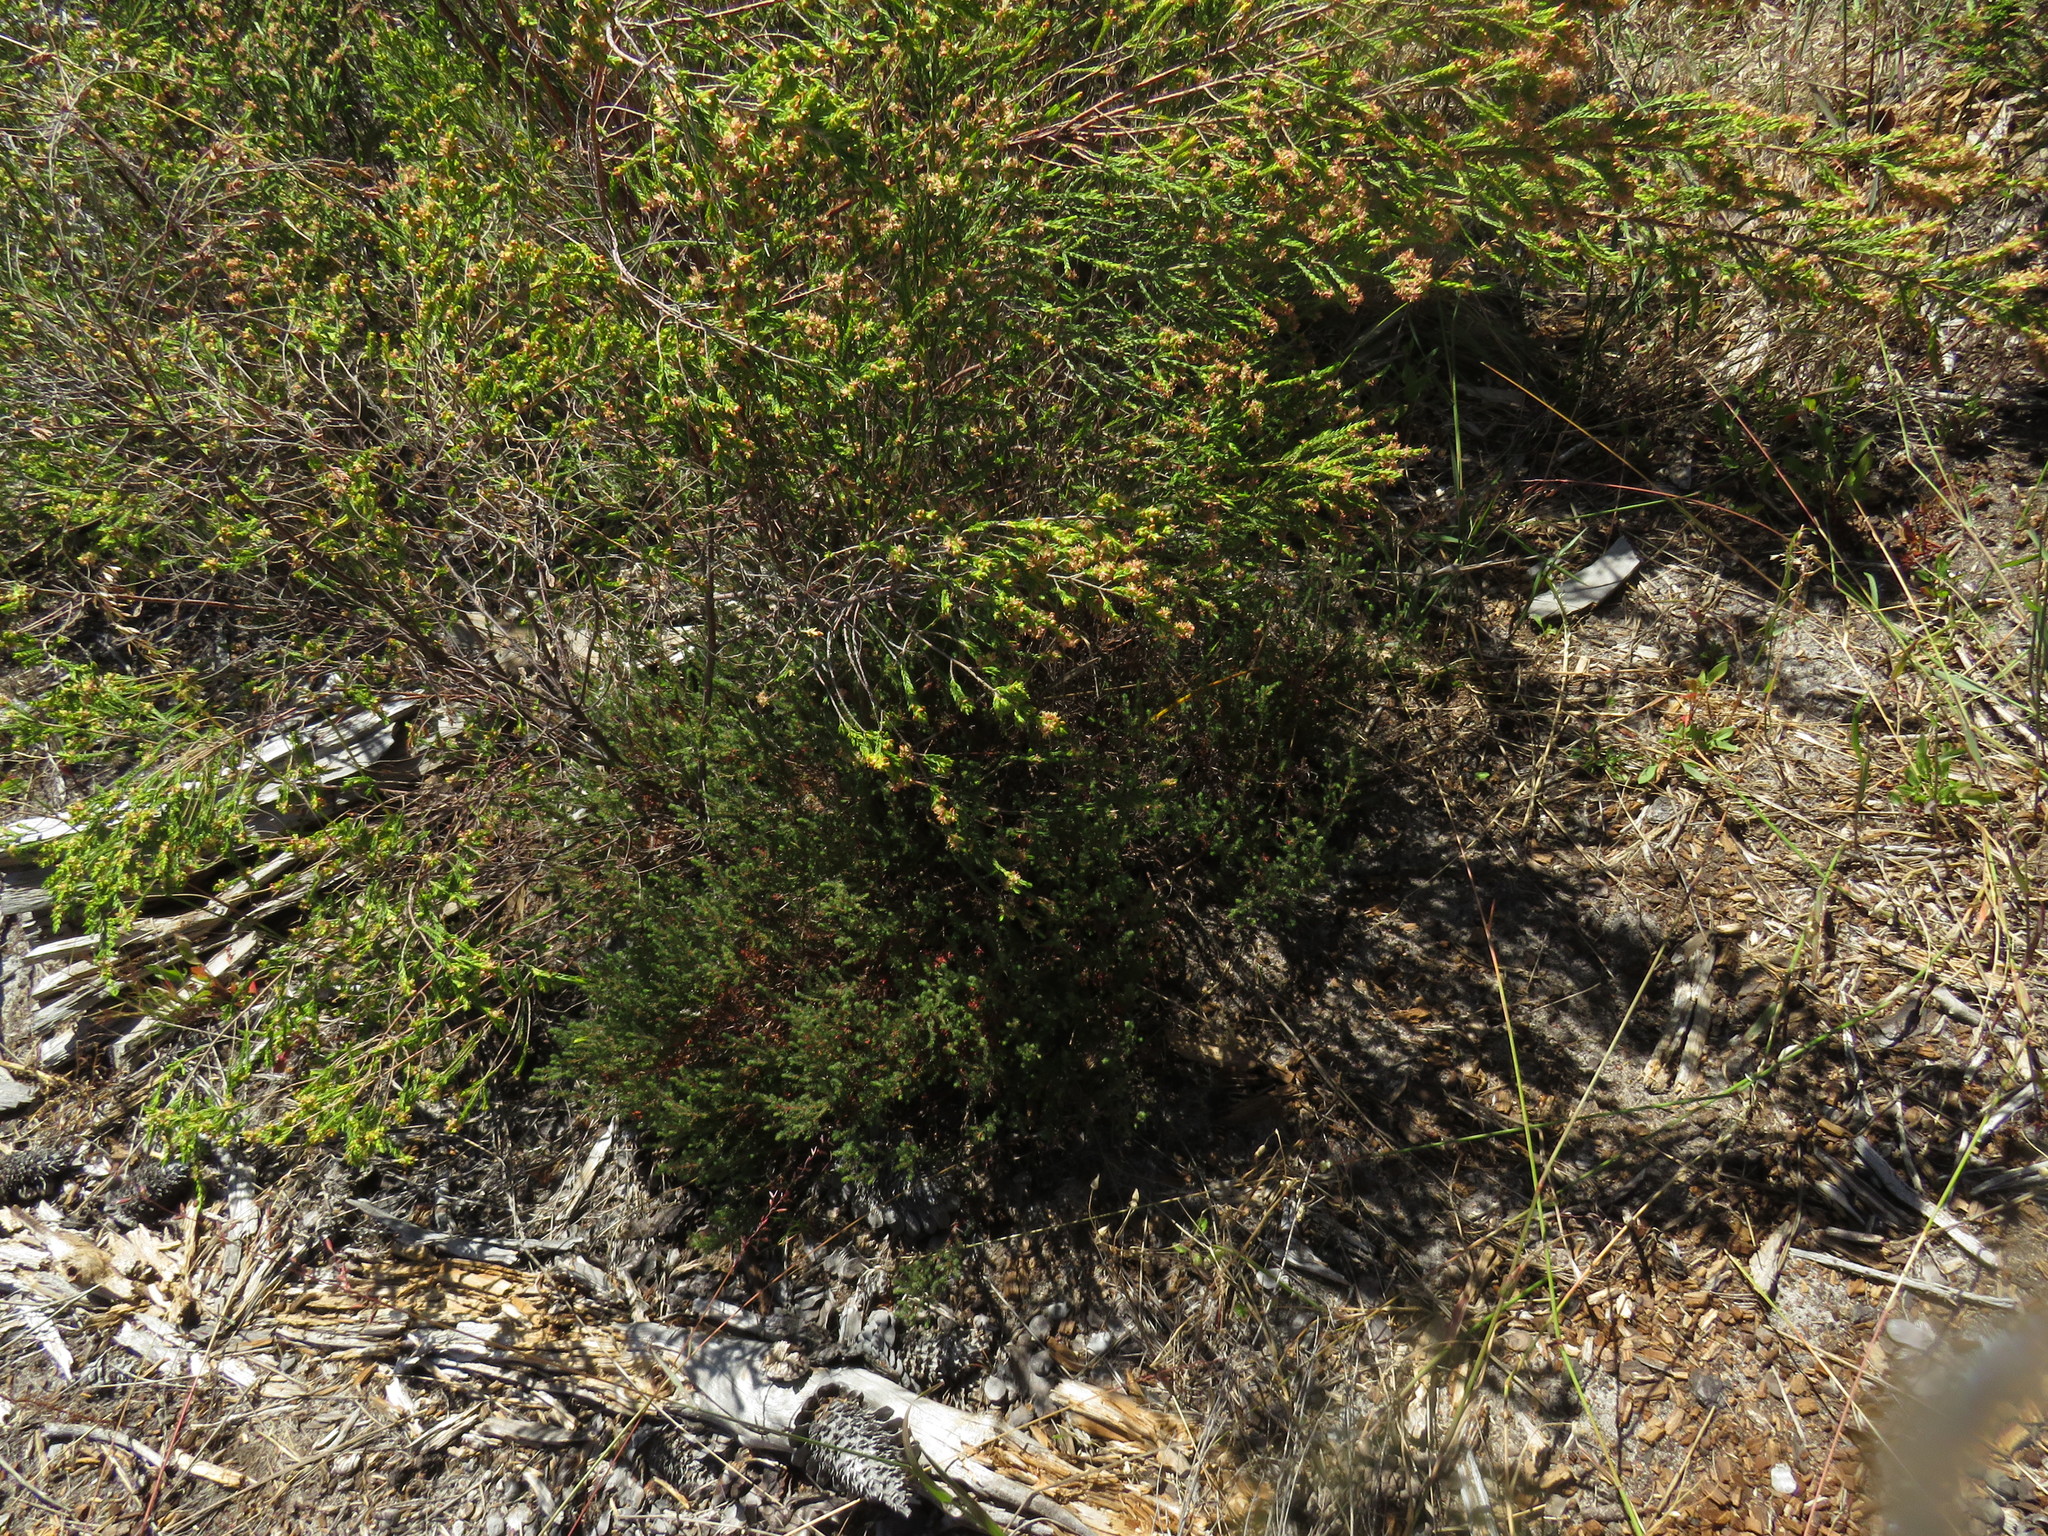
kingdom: Plantae
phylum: Tracheophyta
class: Magnoliopsida
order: Ericales
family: Ericaceae
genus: Erica
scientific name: Erica turgida
